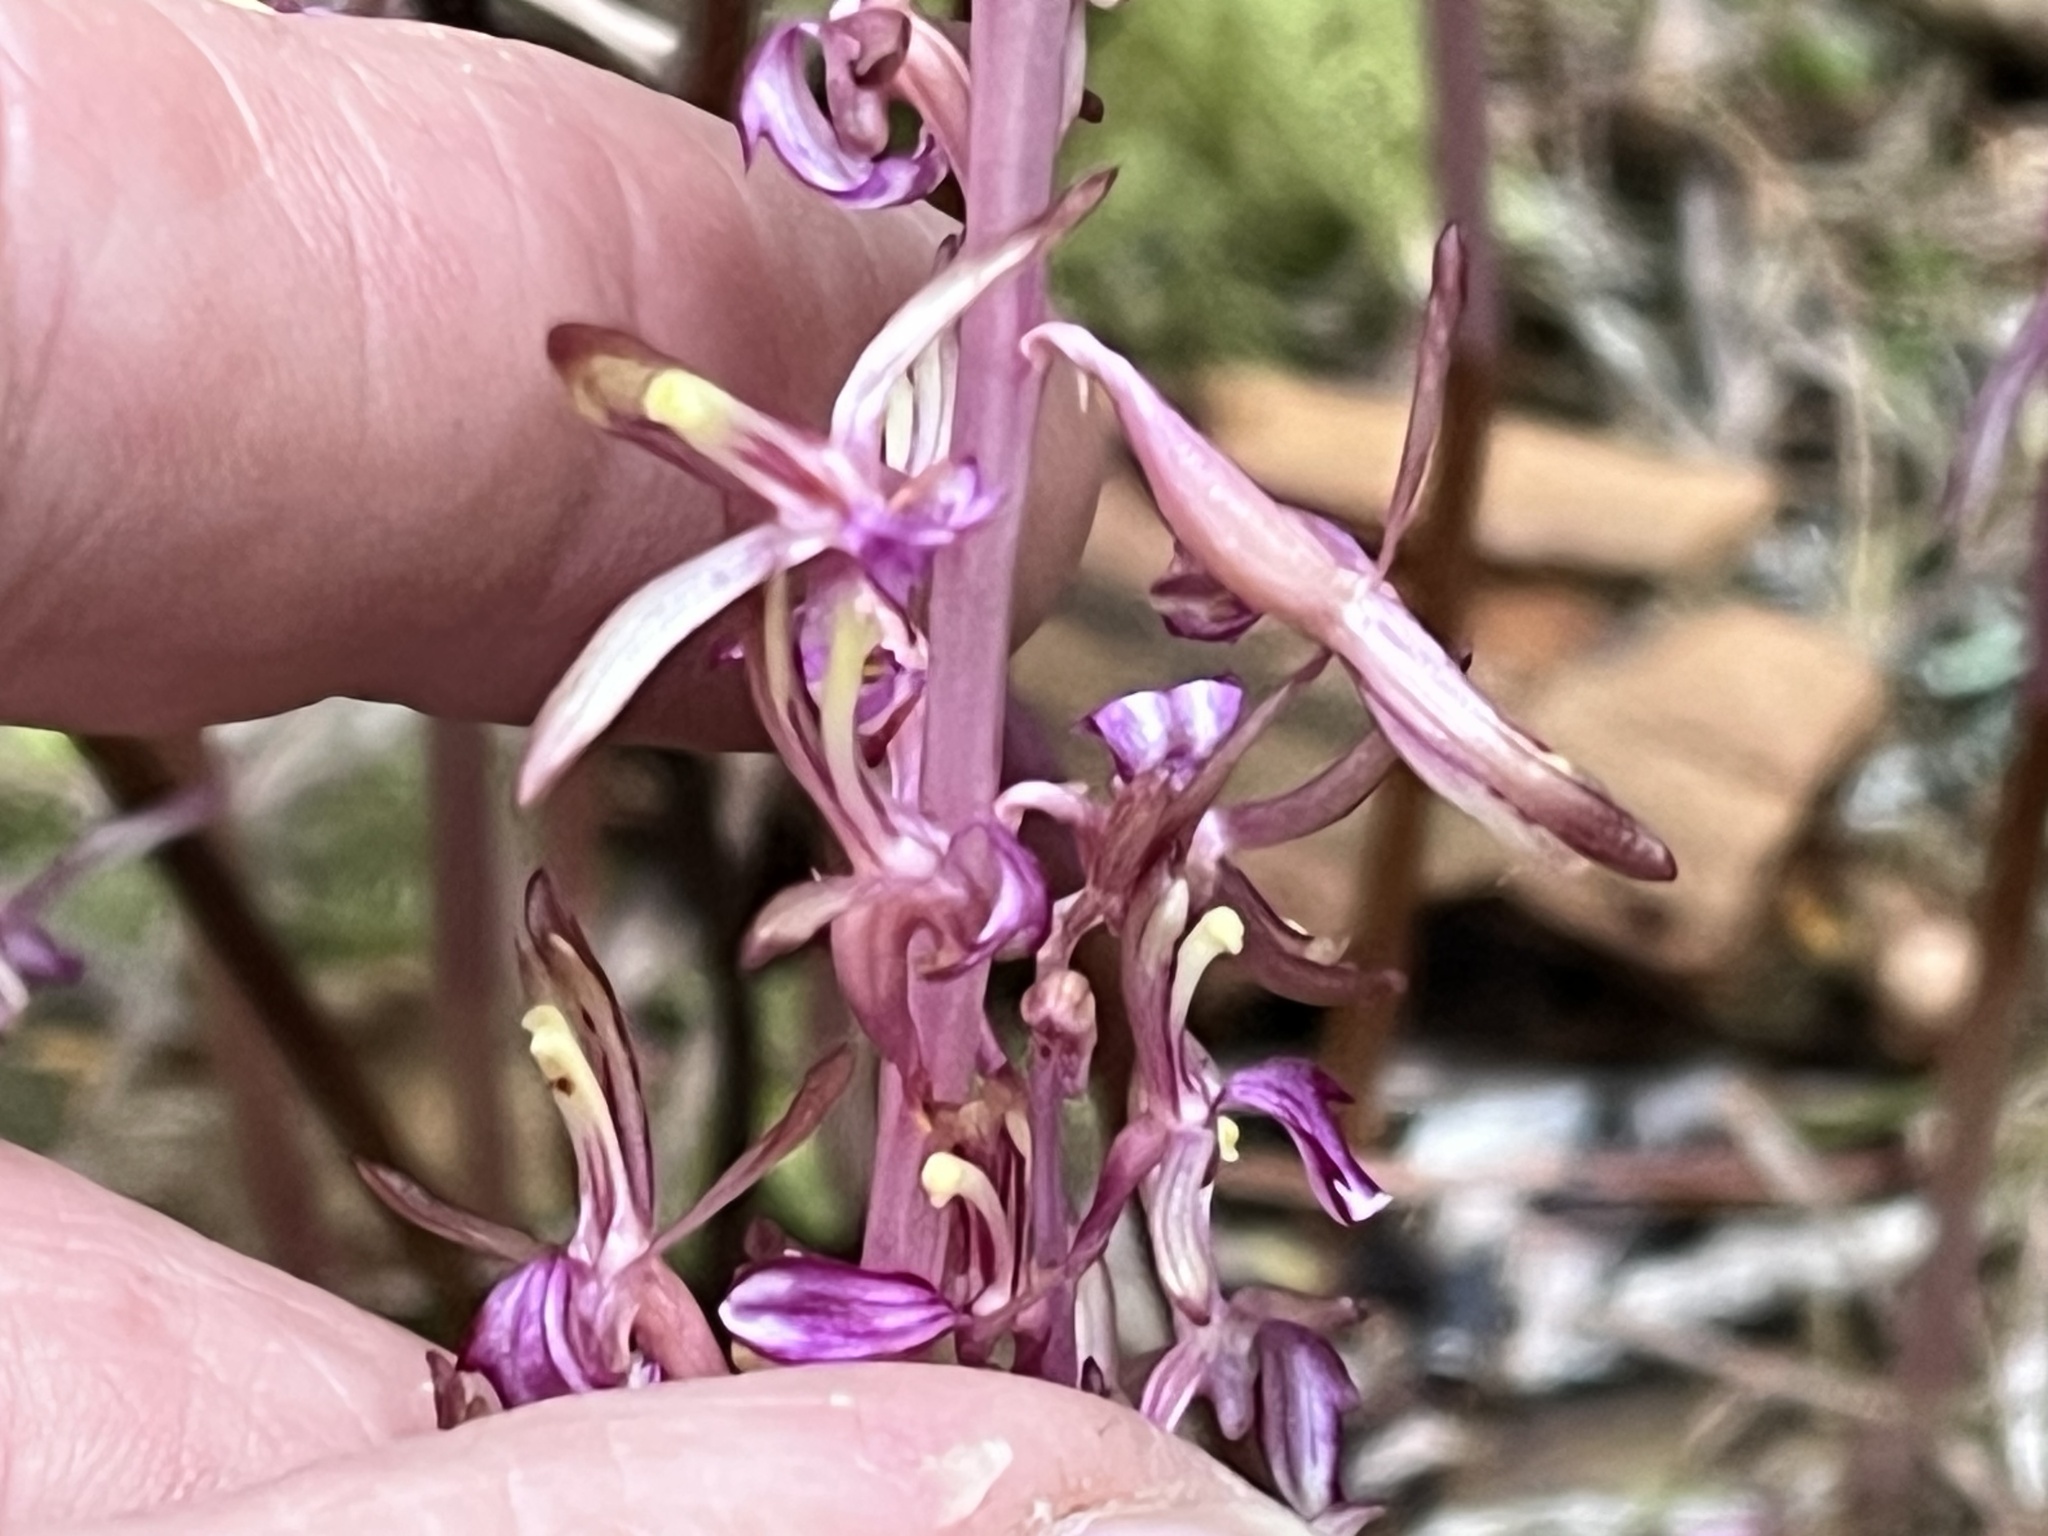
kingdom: Plantae
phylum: Tracheophyta
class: Liliopsida
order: Asparagales
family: Orchidaceae
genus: Corallorhiza
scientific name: Corallorhiza mertensiana
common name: Pacific coralroot
